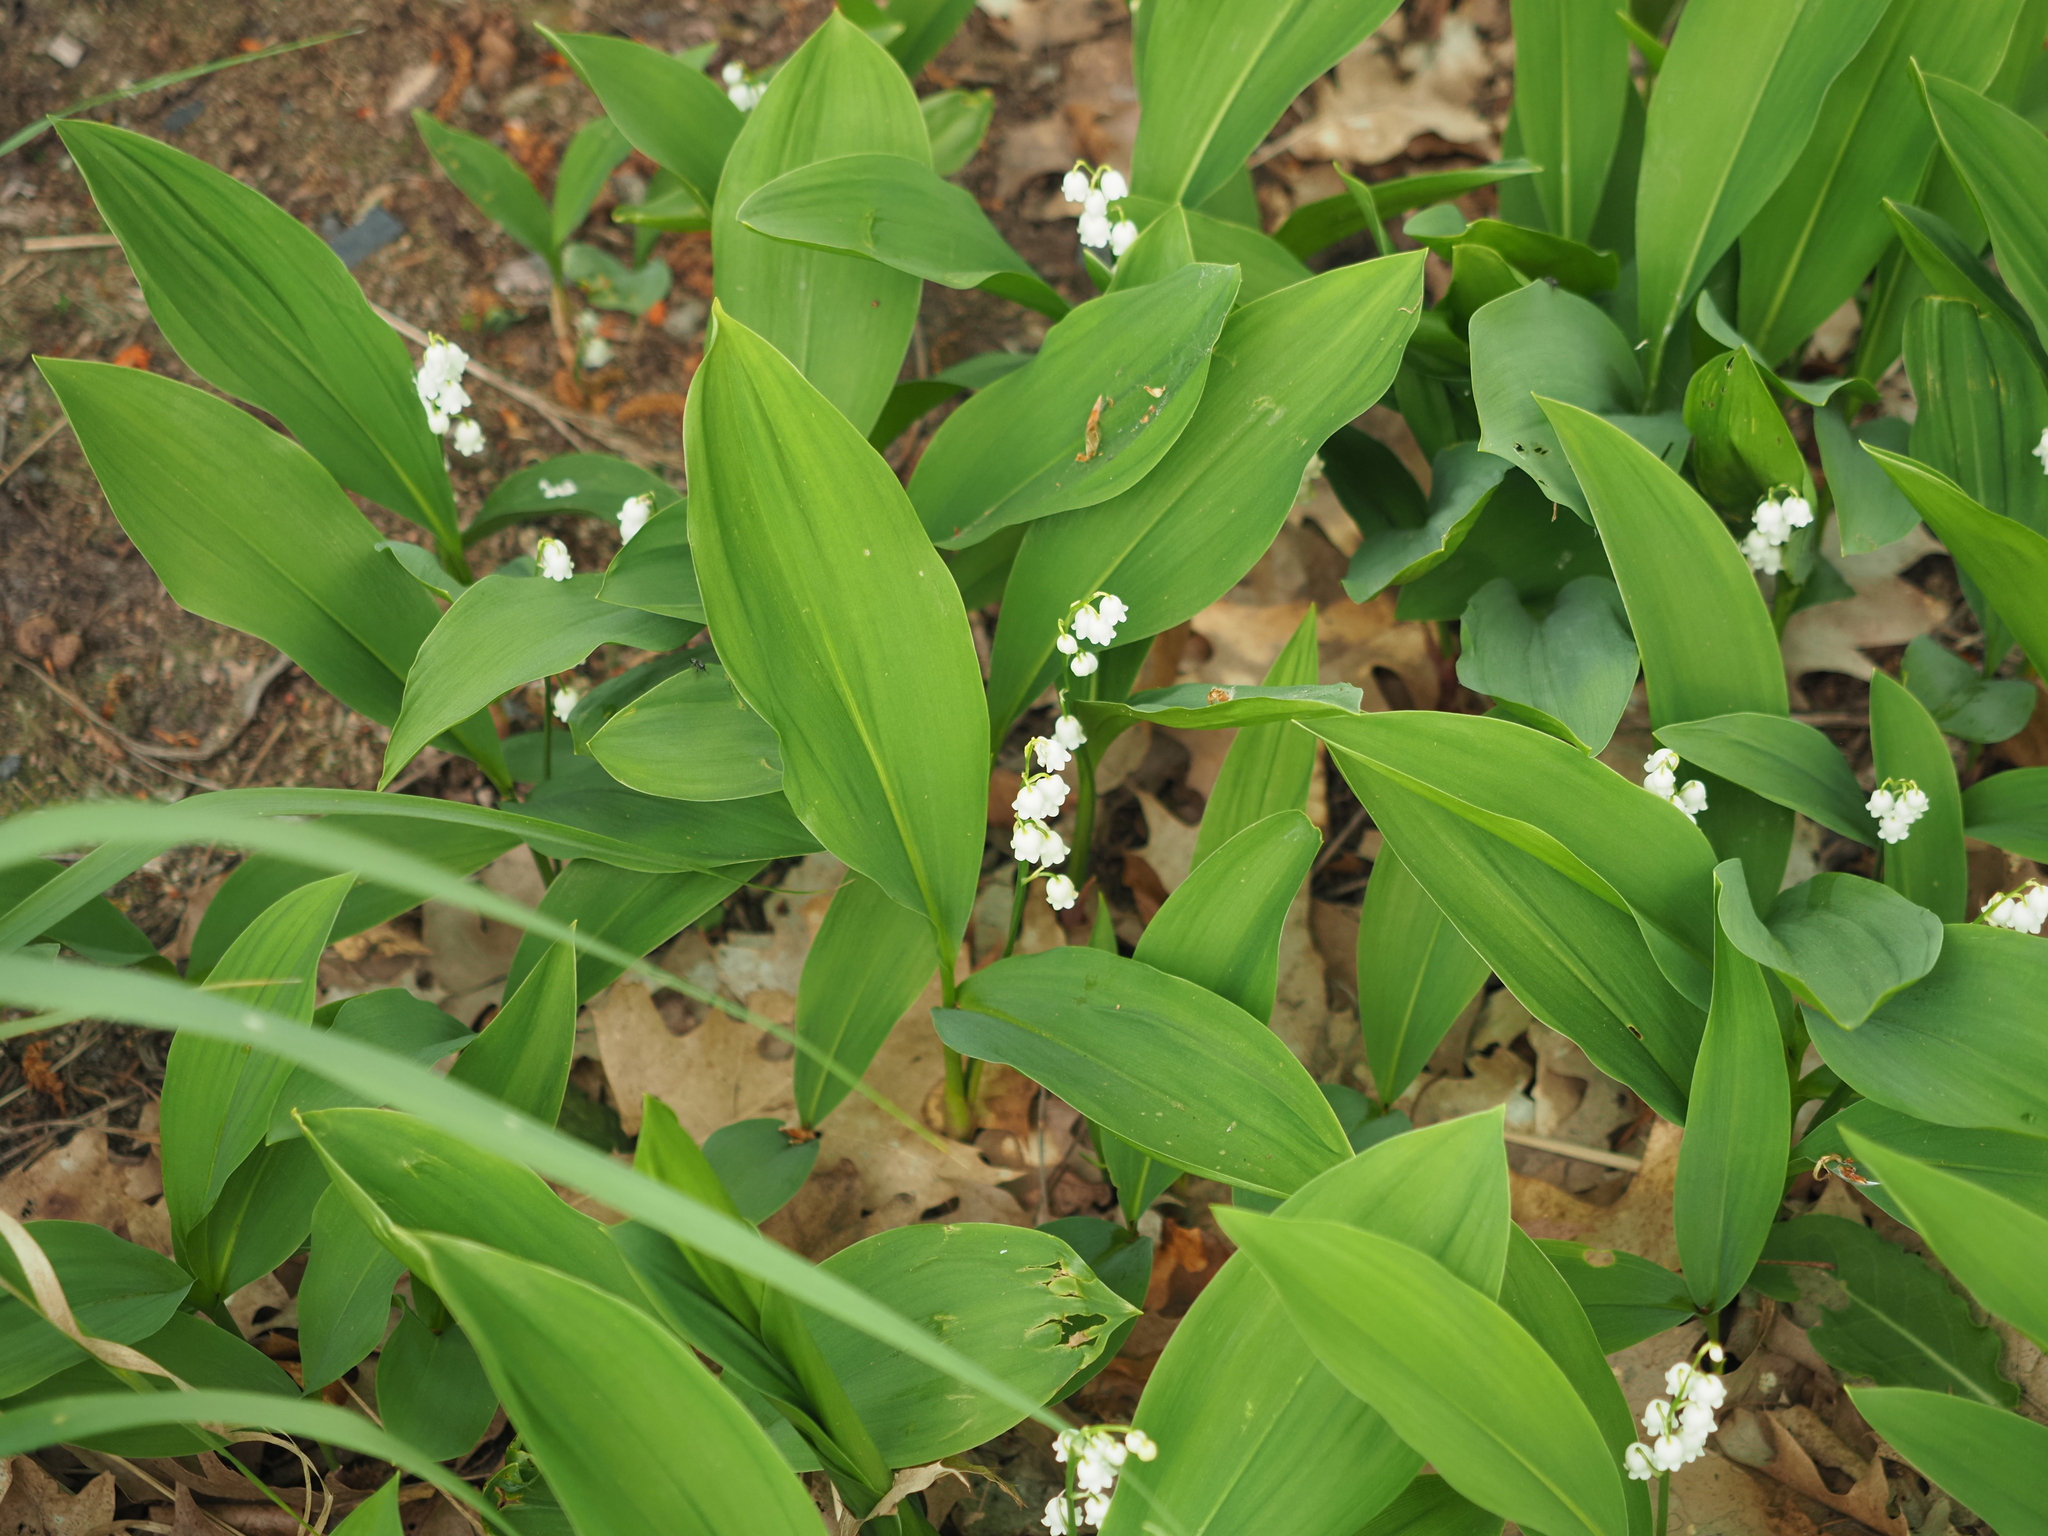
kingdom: Plantae
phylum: Tracheophyta
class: Liliopsida
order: Asparagales
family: Asparagaceae
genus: Convallaria
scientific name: Convallaria majalis
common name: Lily-of-the-valley
